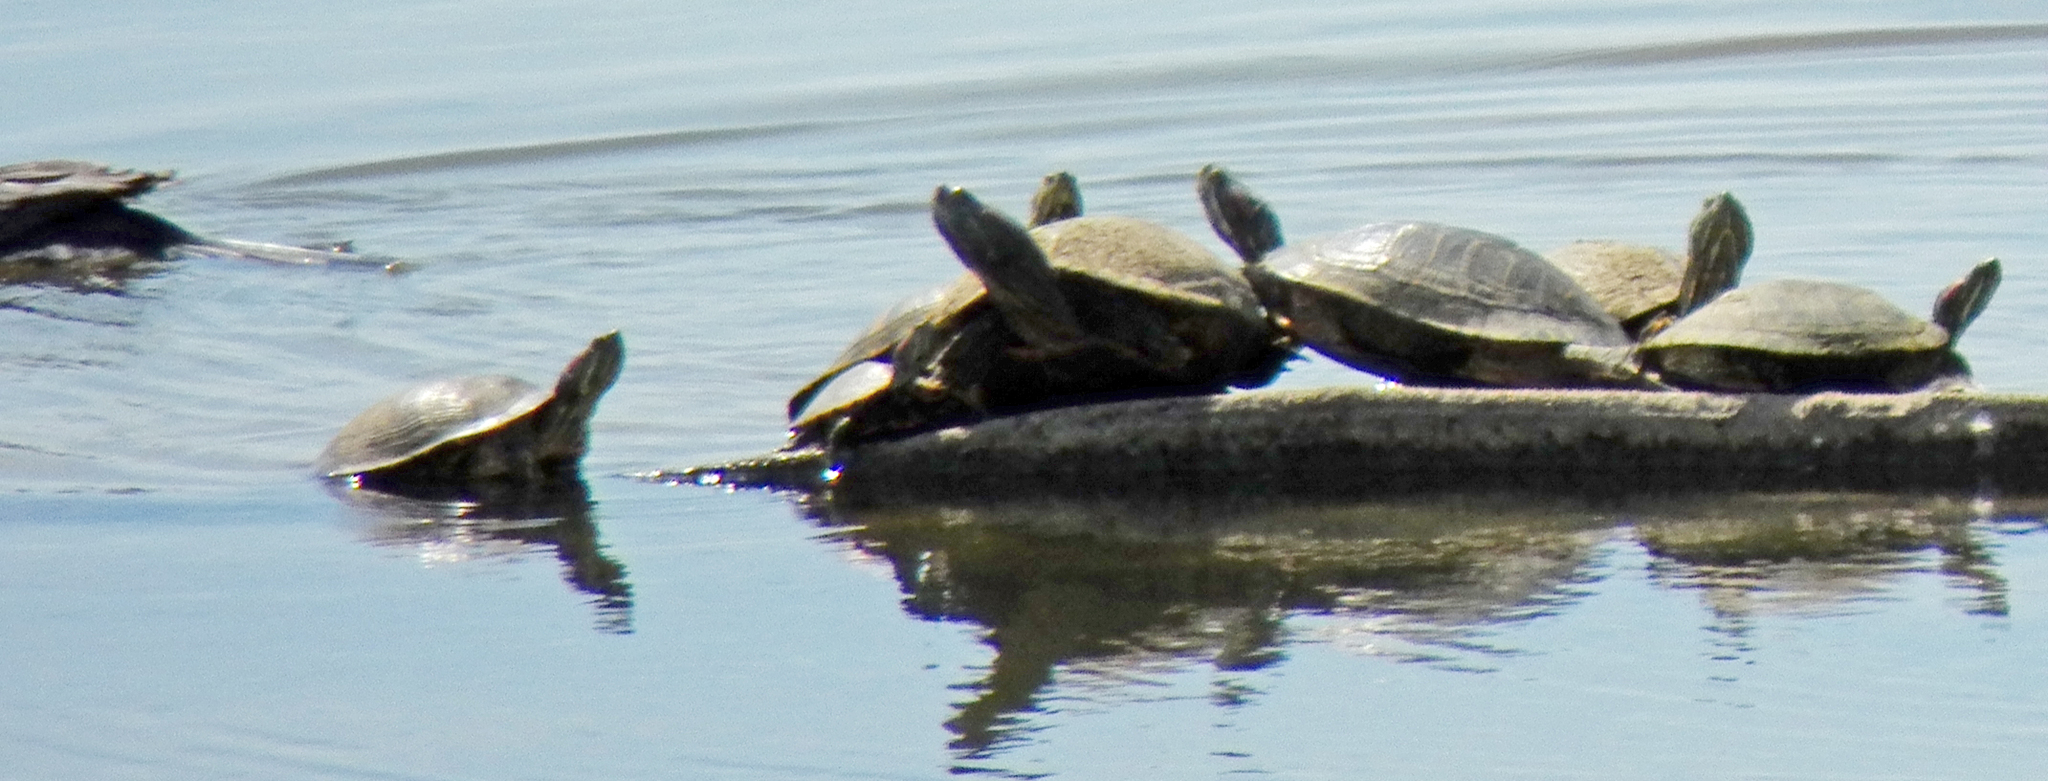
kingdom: Animalia
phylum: Chordata
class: Testudines
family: Emydidae
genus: Trachemys
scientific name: Trachemys scripta
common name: Slider
